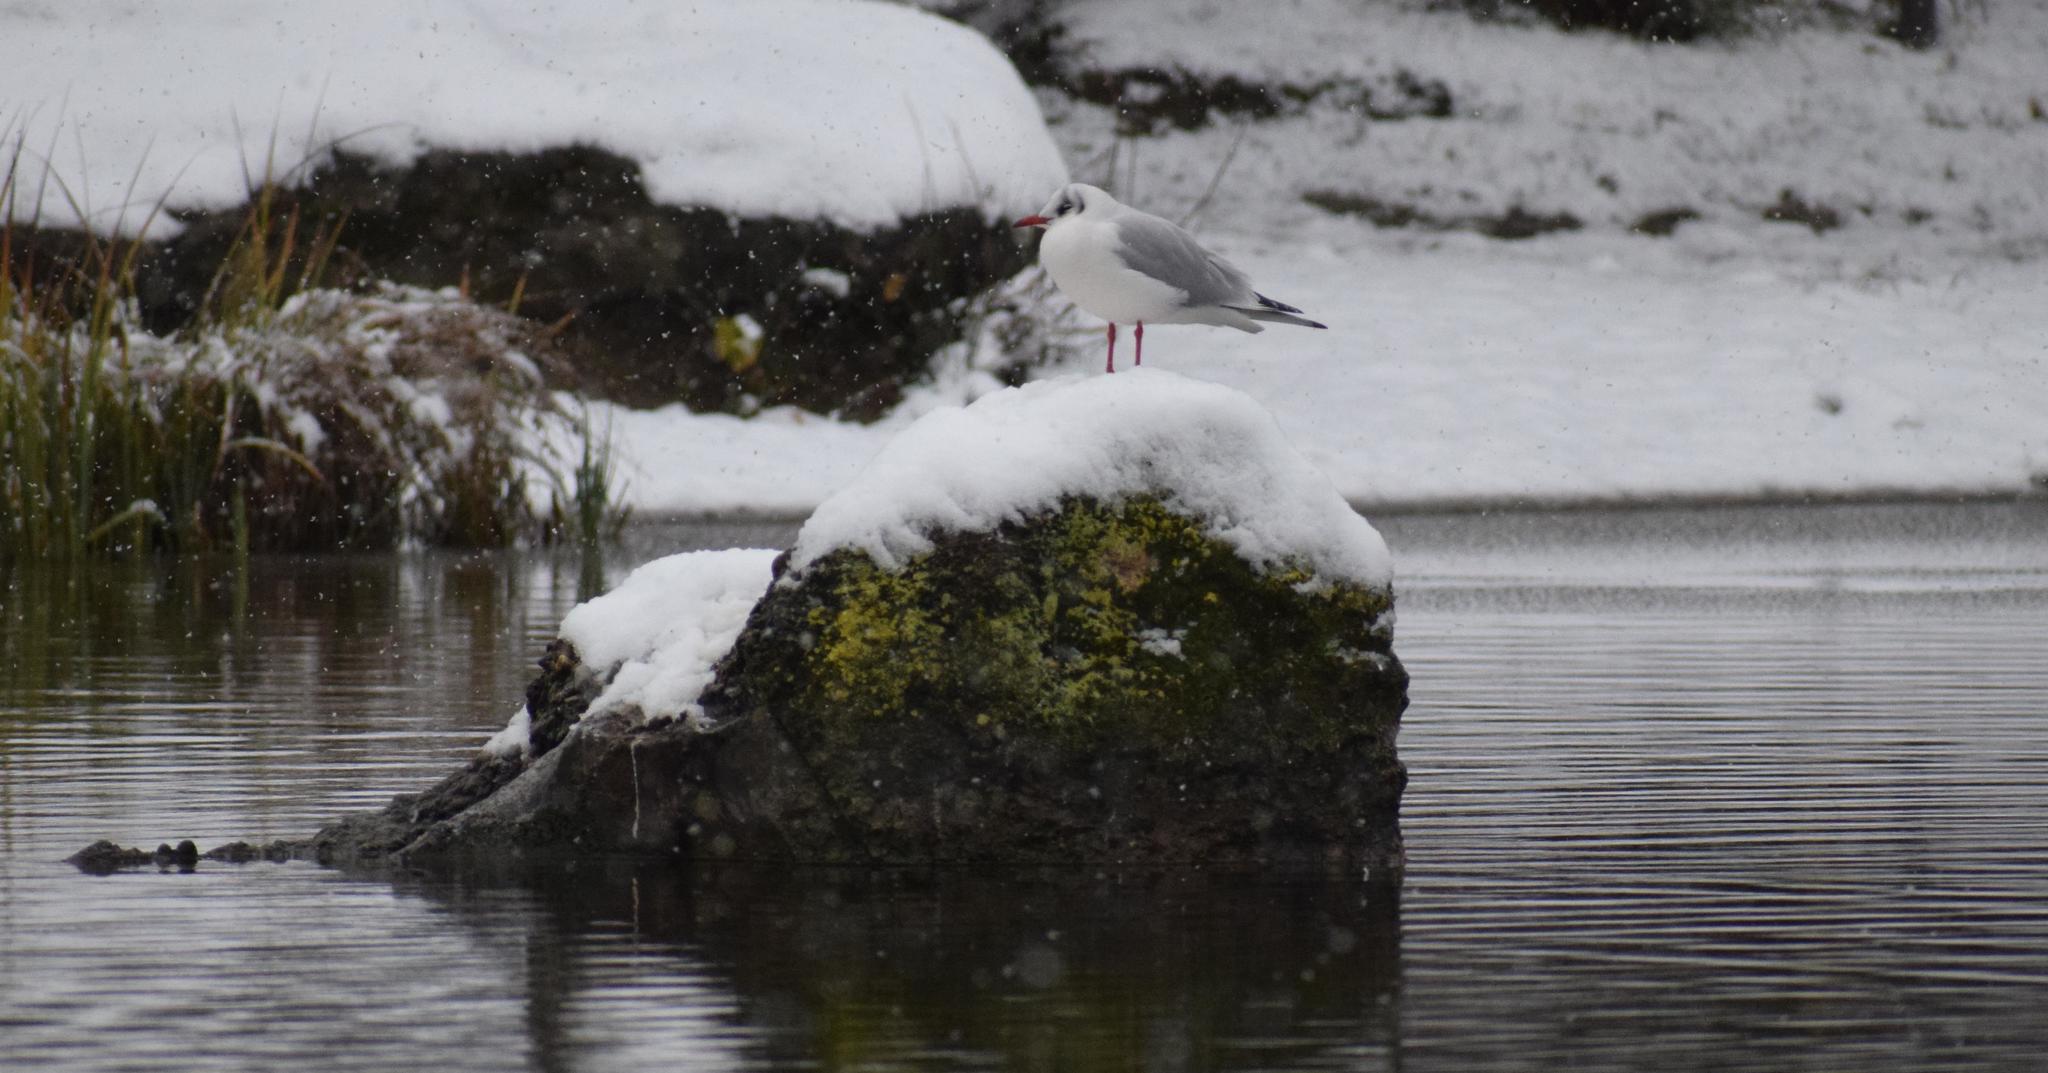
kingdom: Animalia
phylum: Chordata
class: Aves
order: Charadriiformes
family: Laridae
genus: Chroicocephalus
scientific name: Chroicocephalus ridibundus
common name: Black-headed gull
